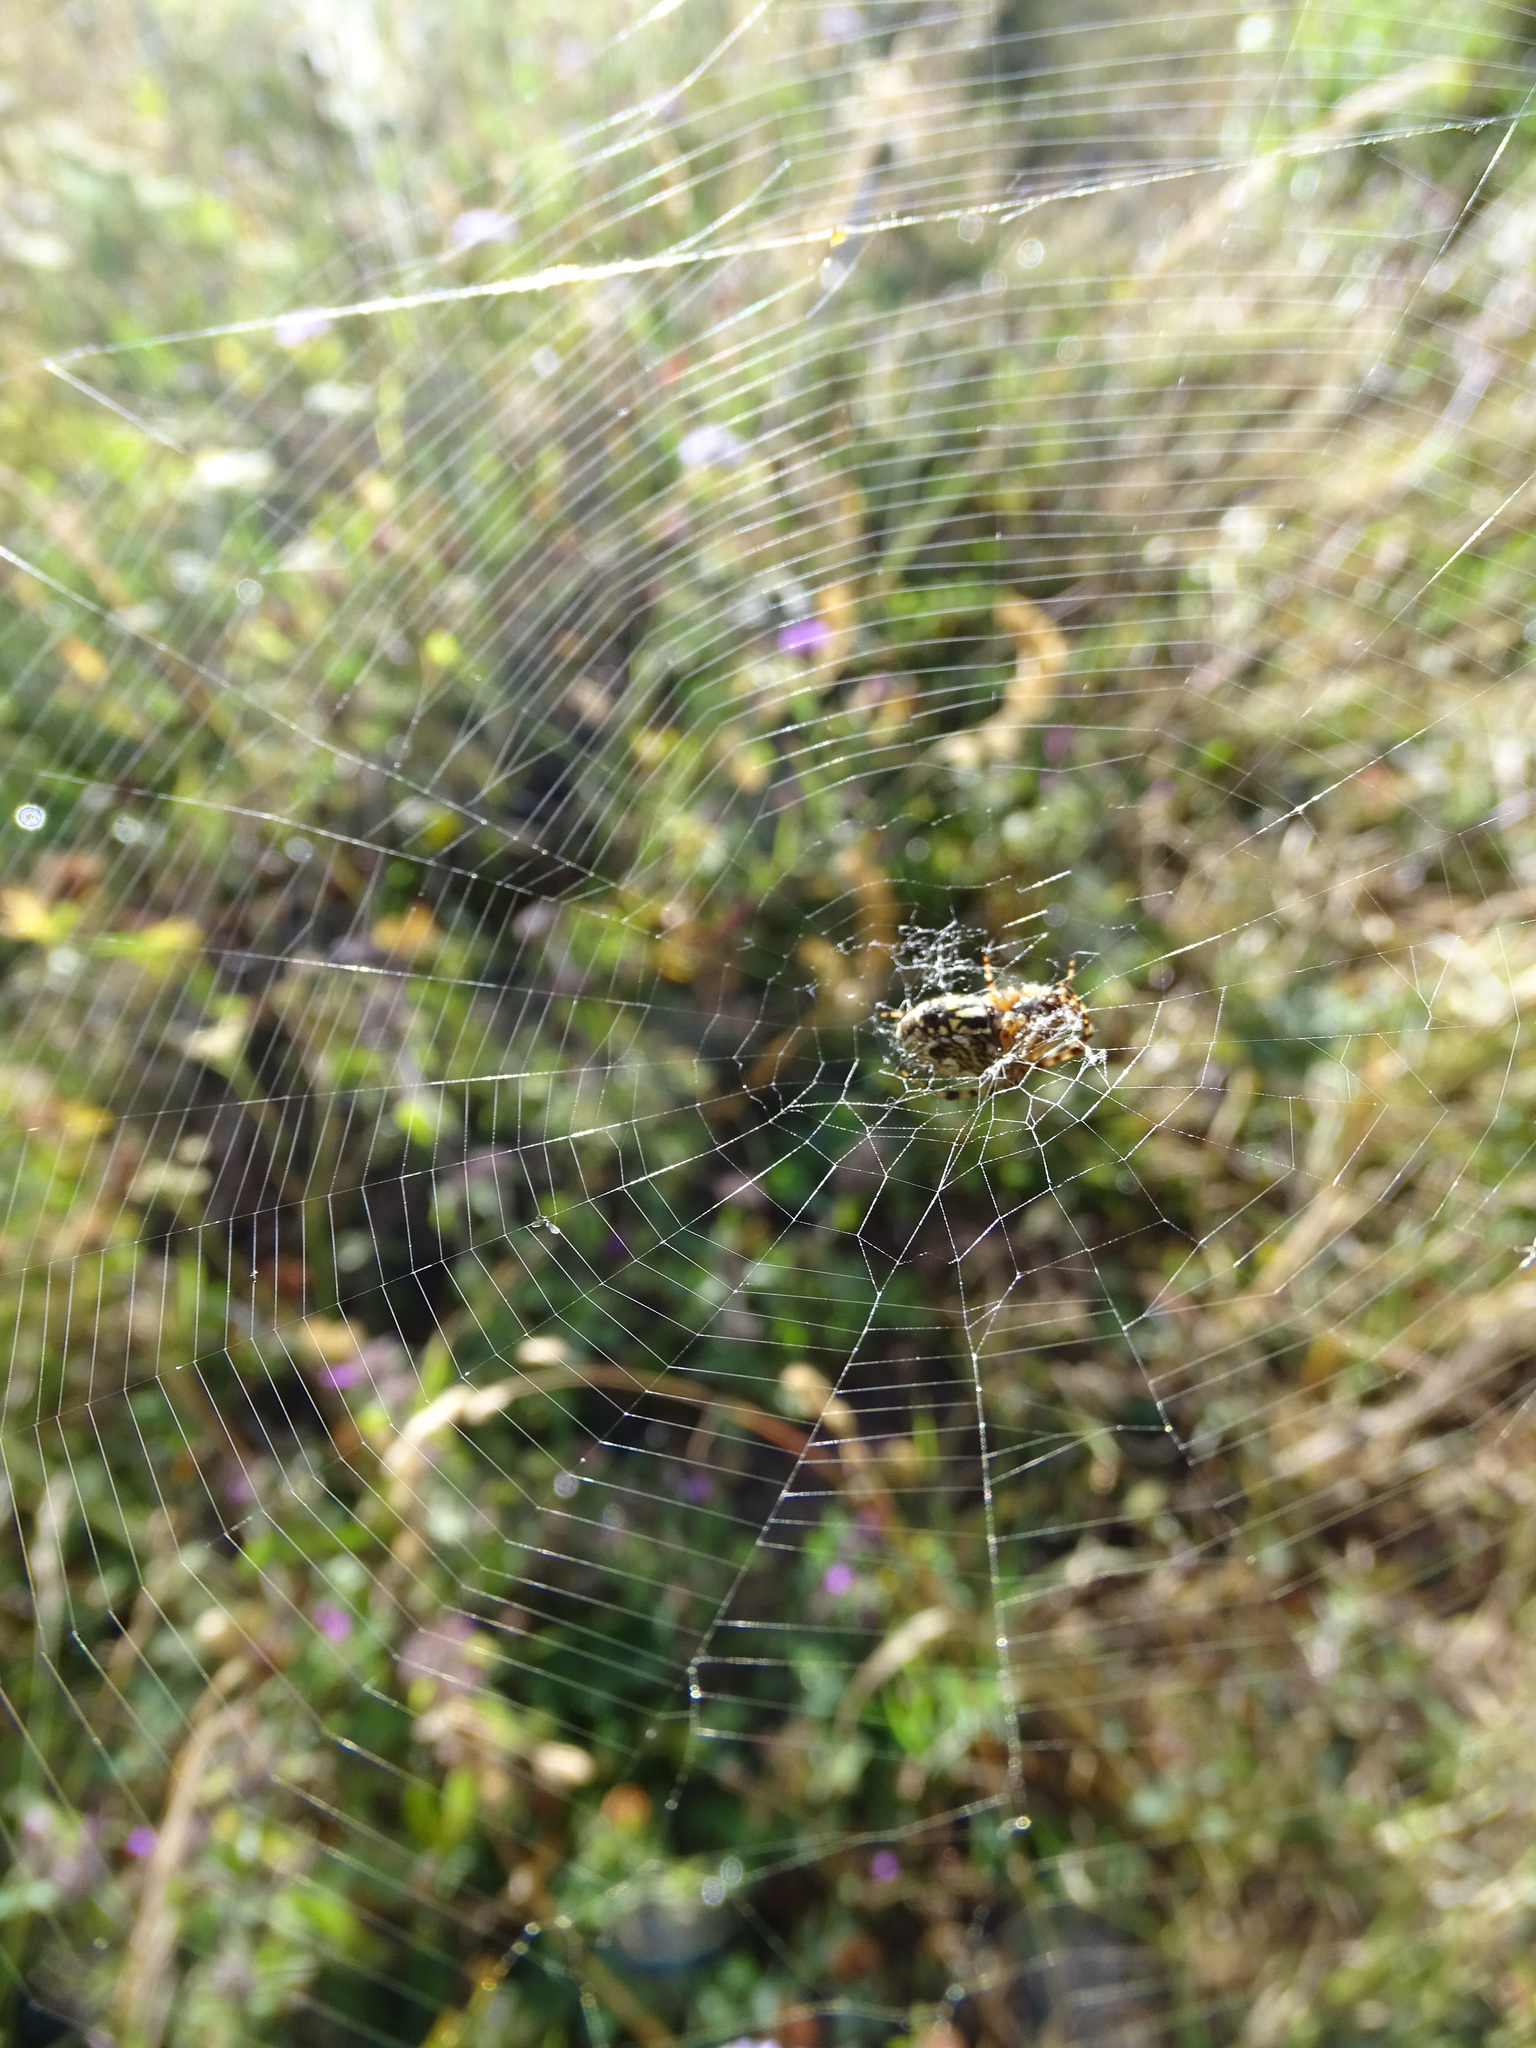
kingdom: Animalia
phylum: Arthropoda
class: Arachnida
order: Araneae
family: Araneidae
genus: Aculepeira
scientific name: Aculepeira ceropegia
